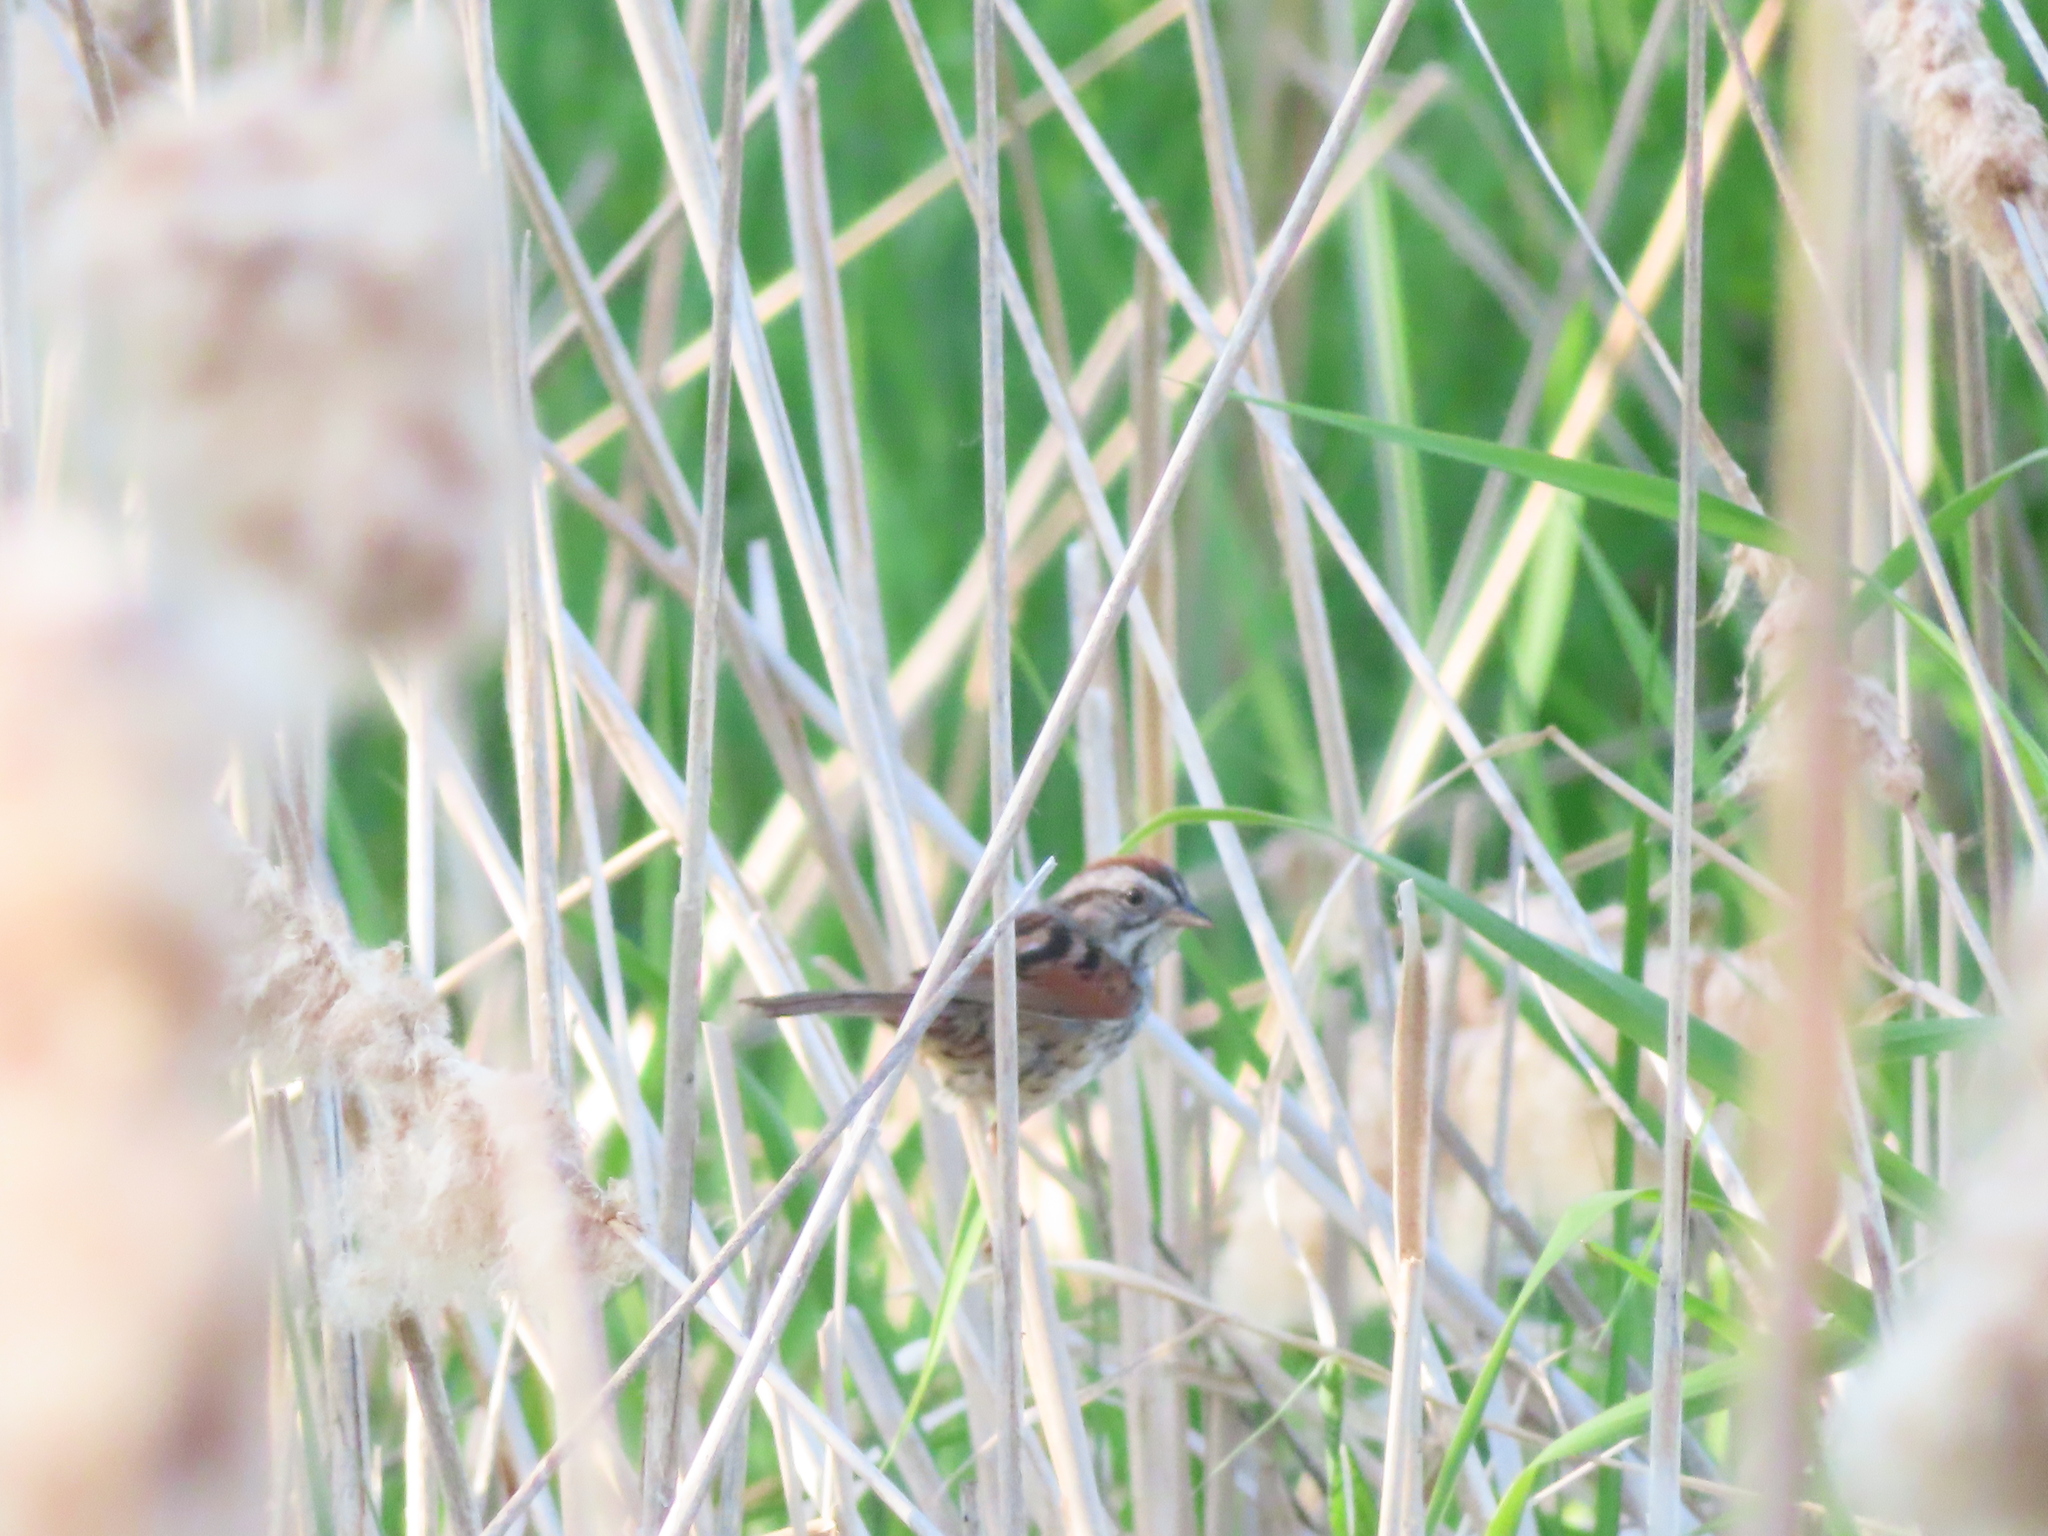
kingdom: Animalia
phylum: Chordata
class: Aves
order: Passeriformes
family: Passerellidae
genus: Melospiza
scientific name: Melospiza georgiana
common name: Swamp sparrow
